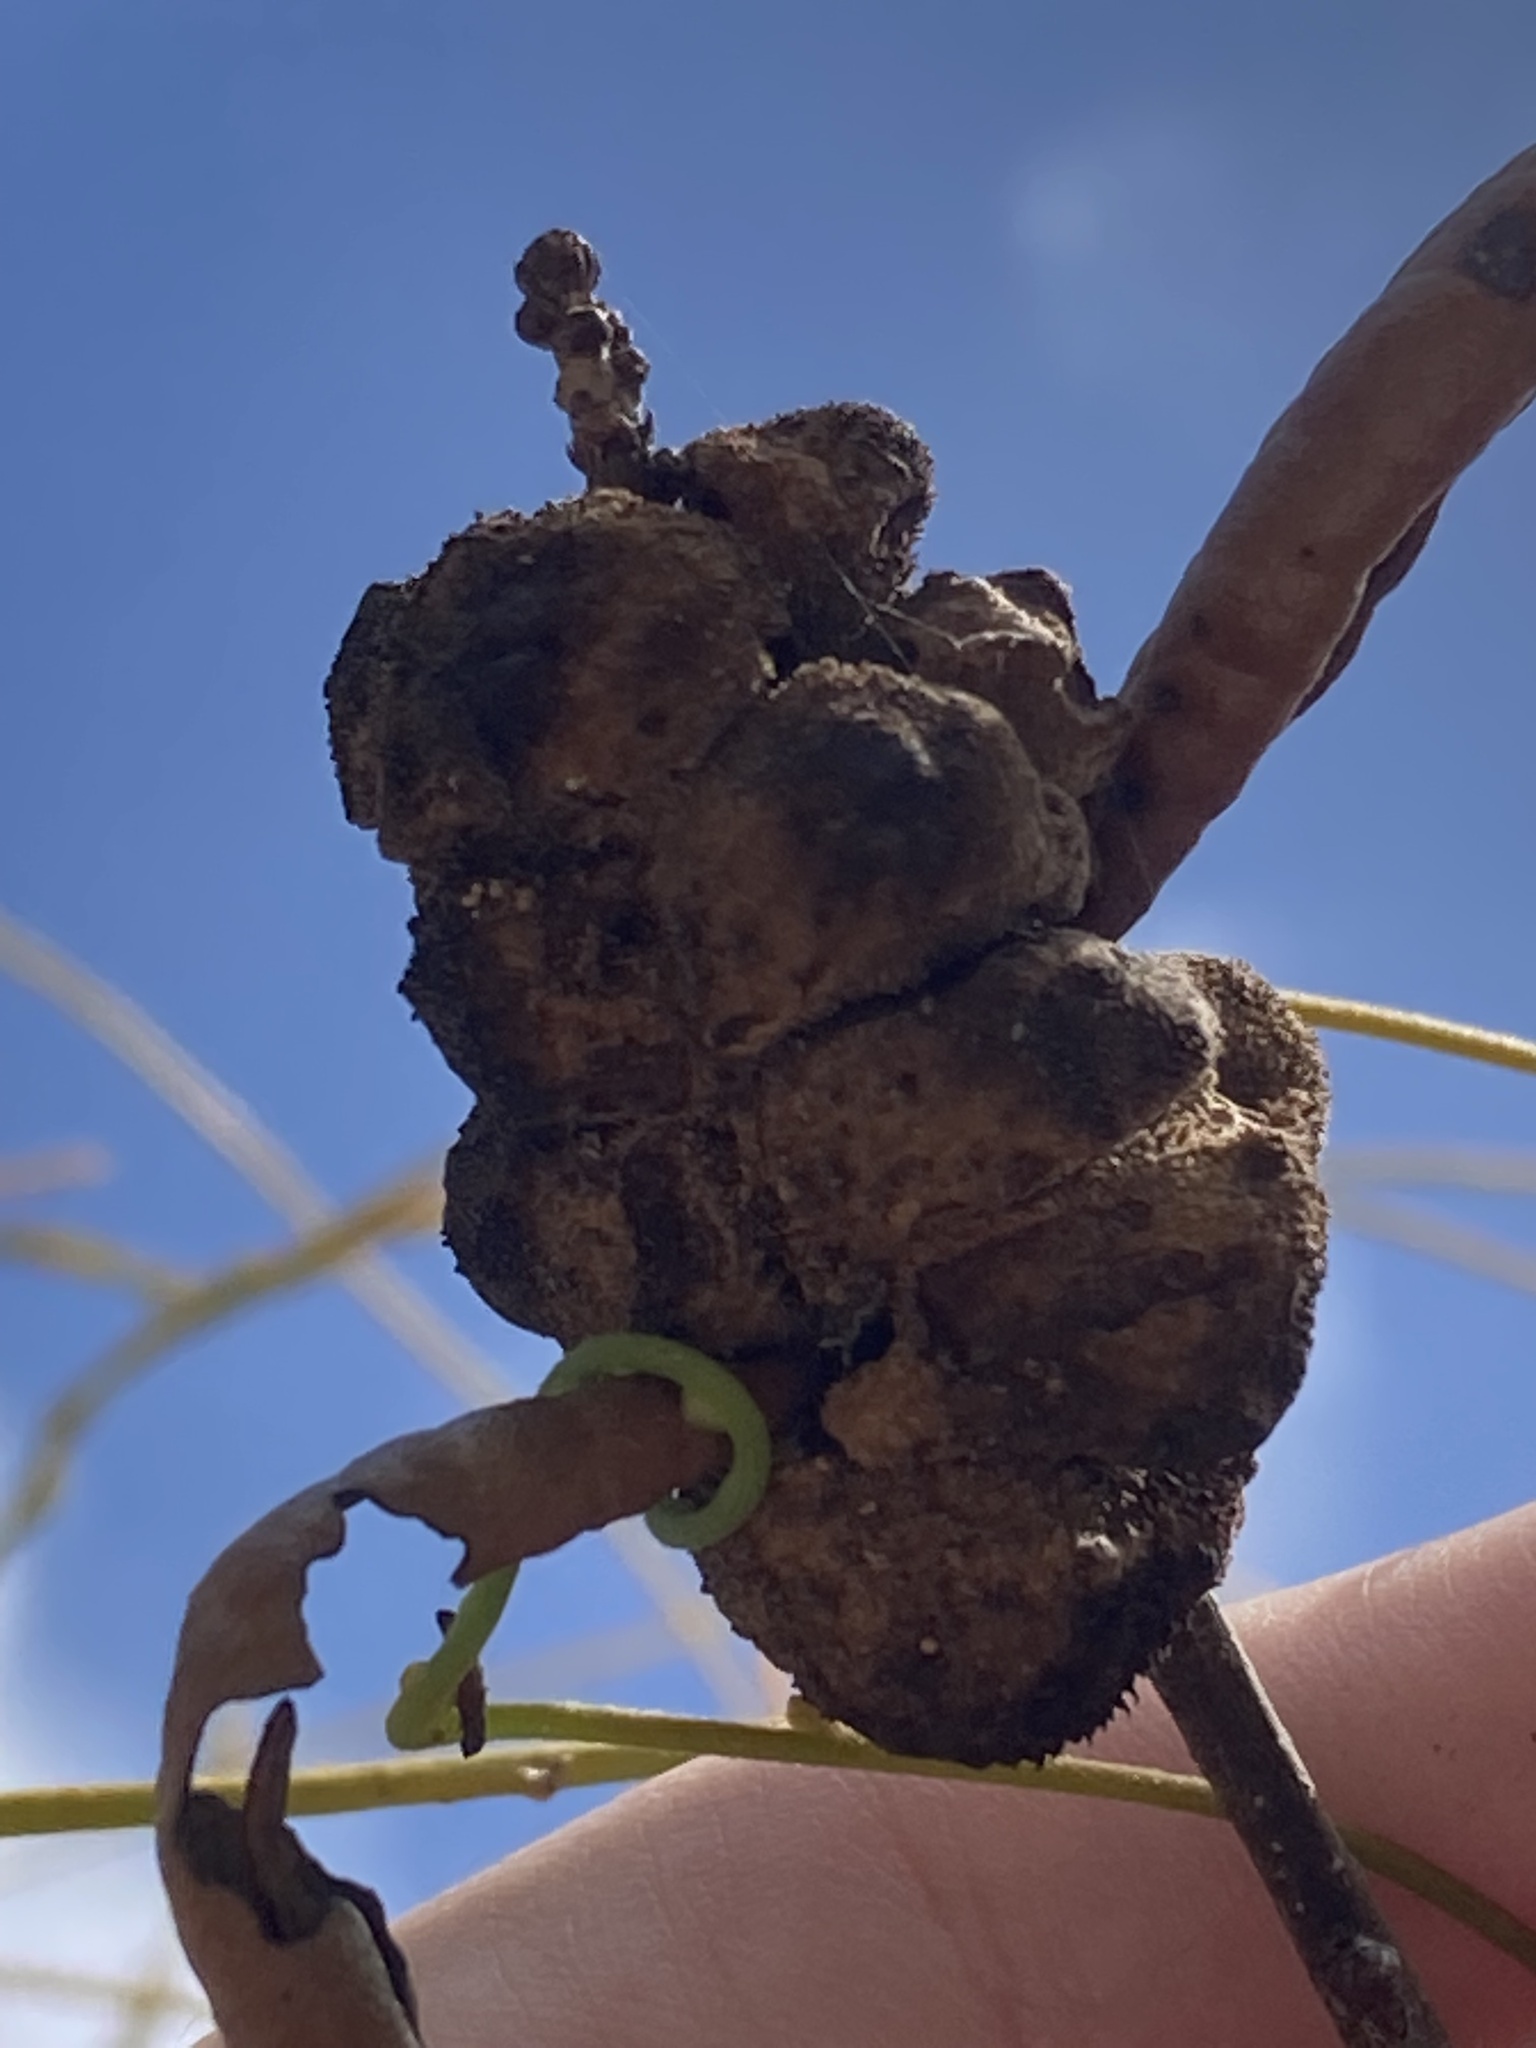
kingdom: Animalia
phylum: Arthropoda
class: Insecta
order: Hymenoptera
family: Cynipidae
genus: Disholcaspis
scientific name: Disholcaspis
